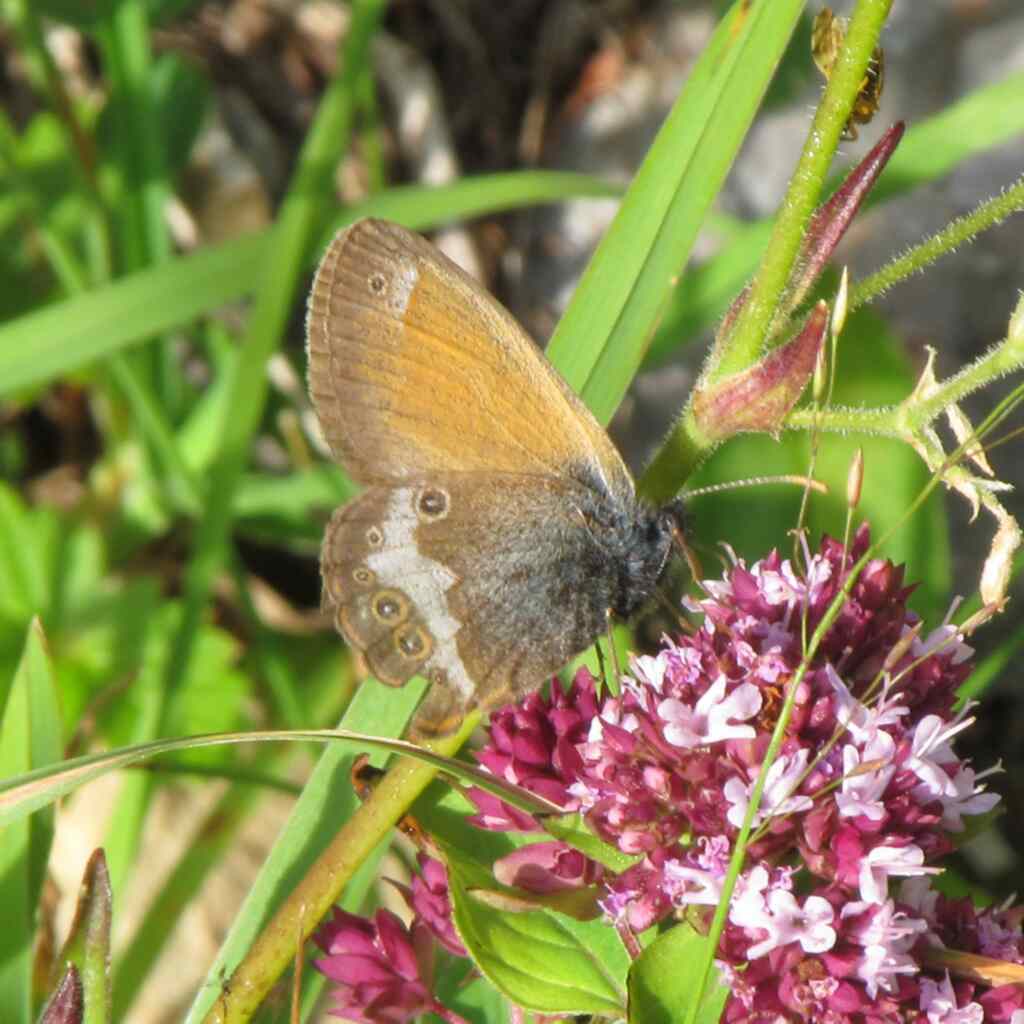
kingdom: Animalia
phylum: Arthropoda
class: Insecta
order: Lepidoptera
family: Nymphalidae
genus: Coenonympha
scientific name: Coenonympha arcania
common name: Pearly heath
